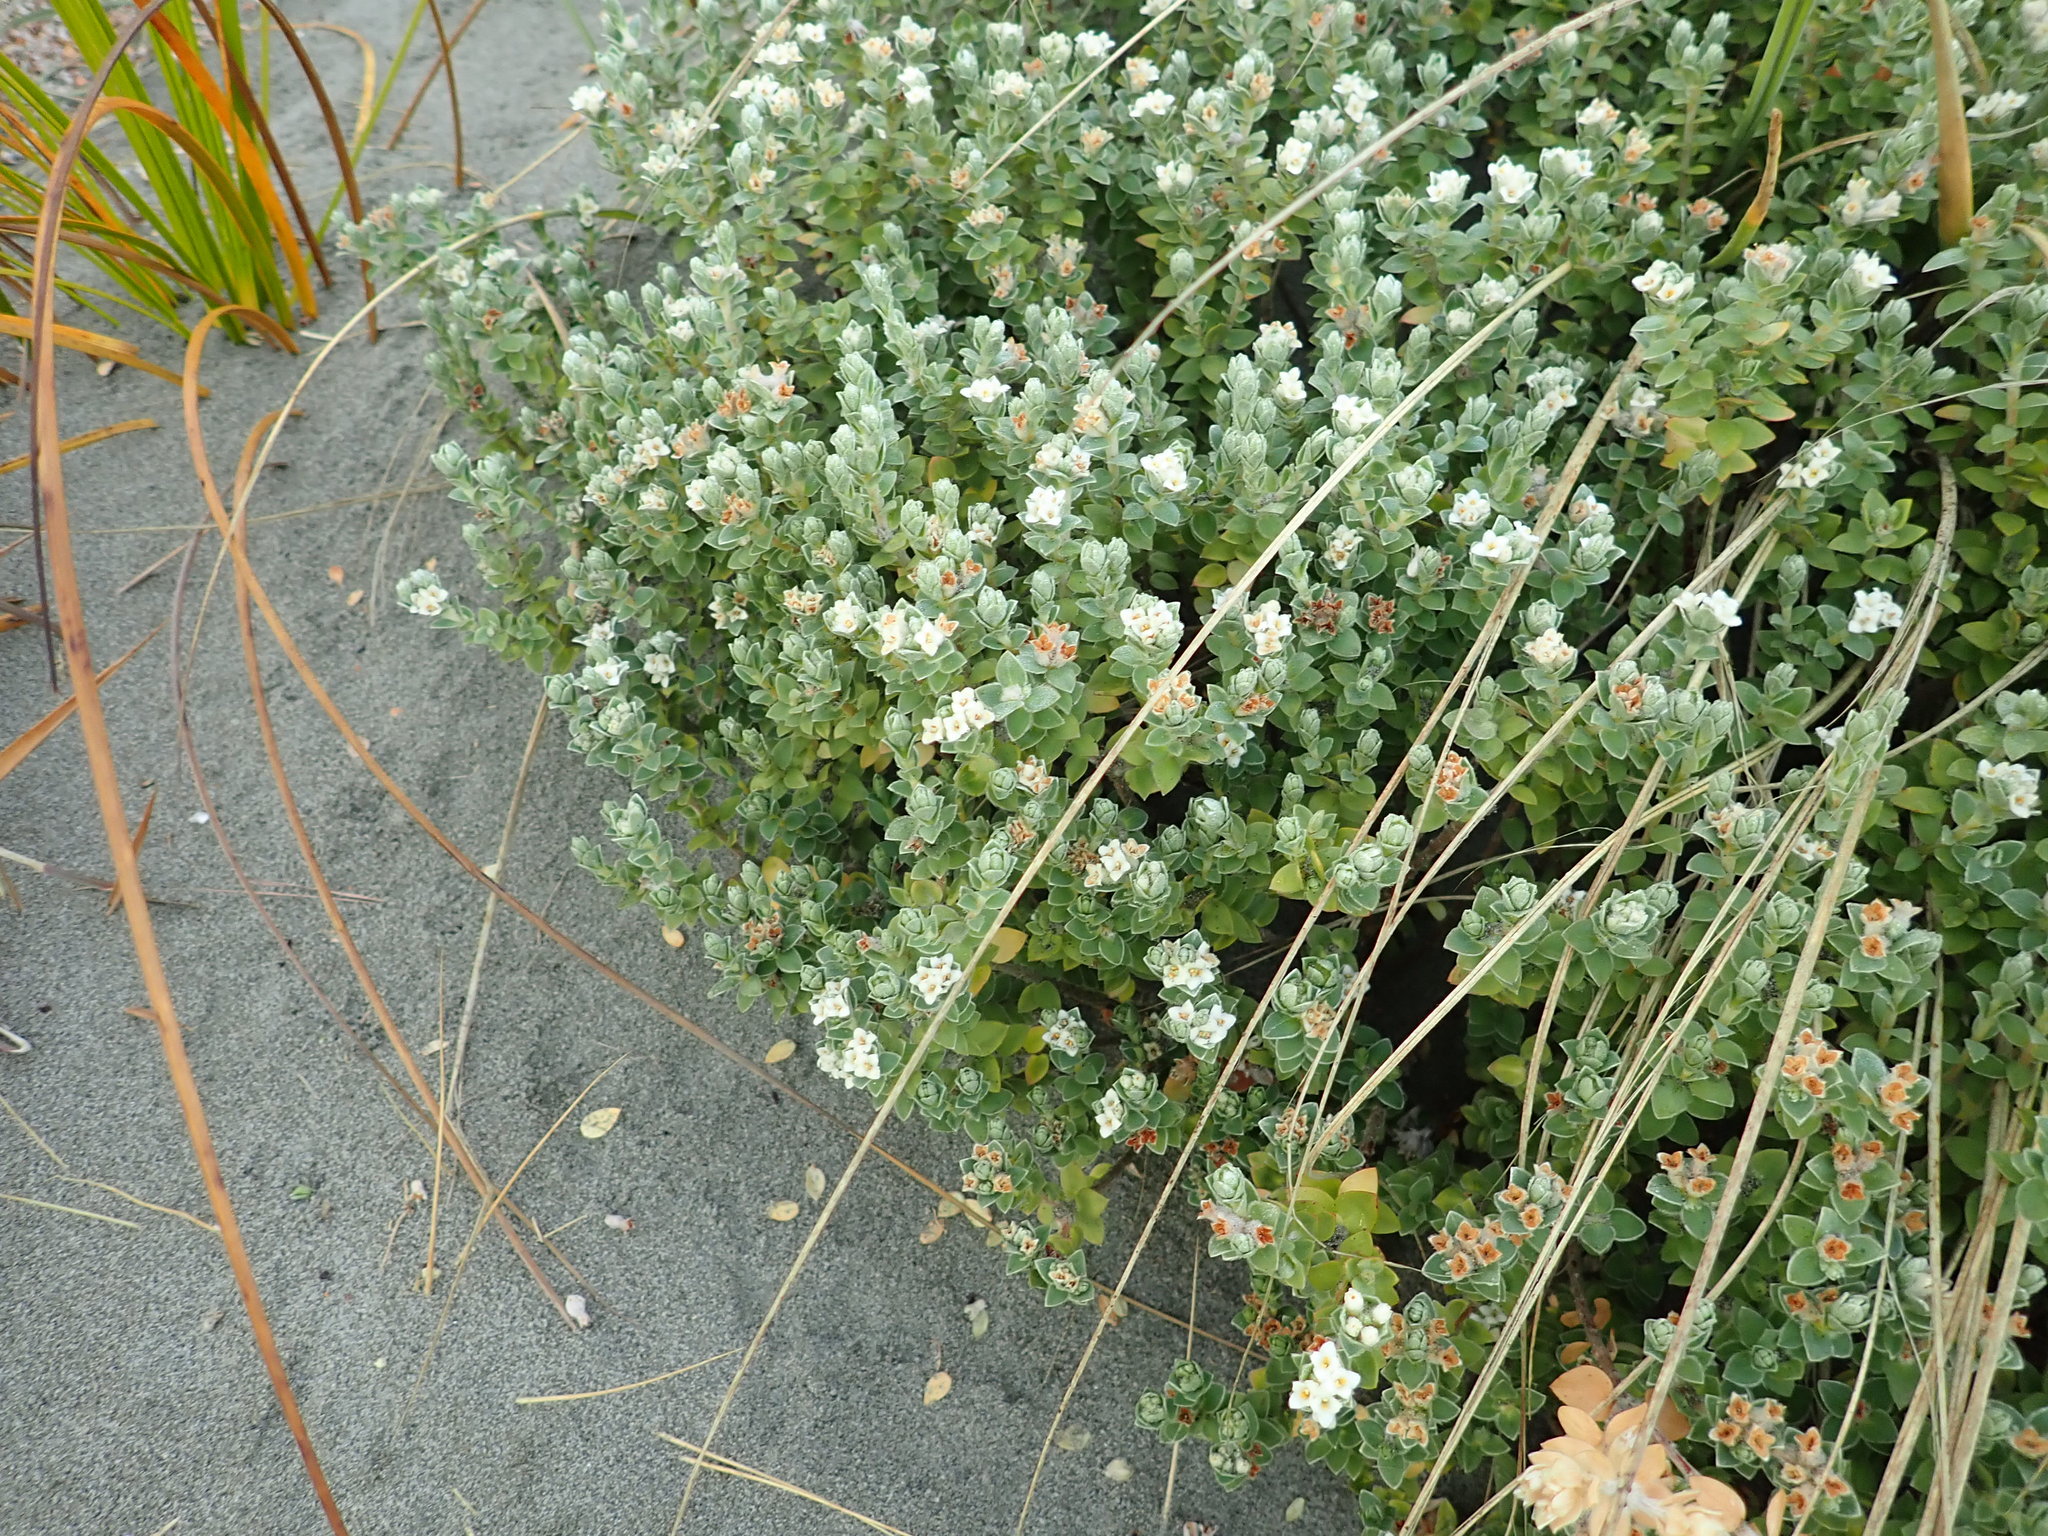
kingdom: Plantae
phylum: Tracheophyta
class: Magnoliopsida
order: Malvales
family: Thymelaeaceae
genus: Pimelea
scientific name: Pimelea villosa
